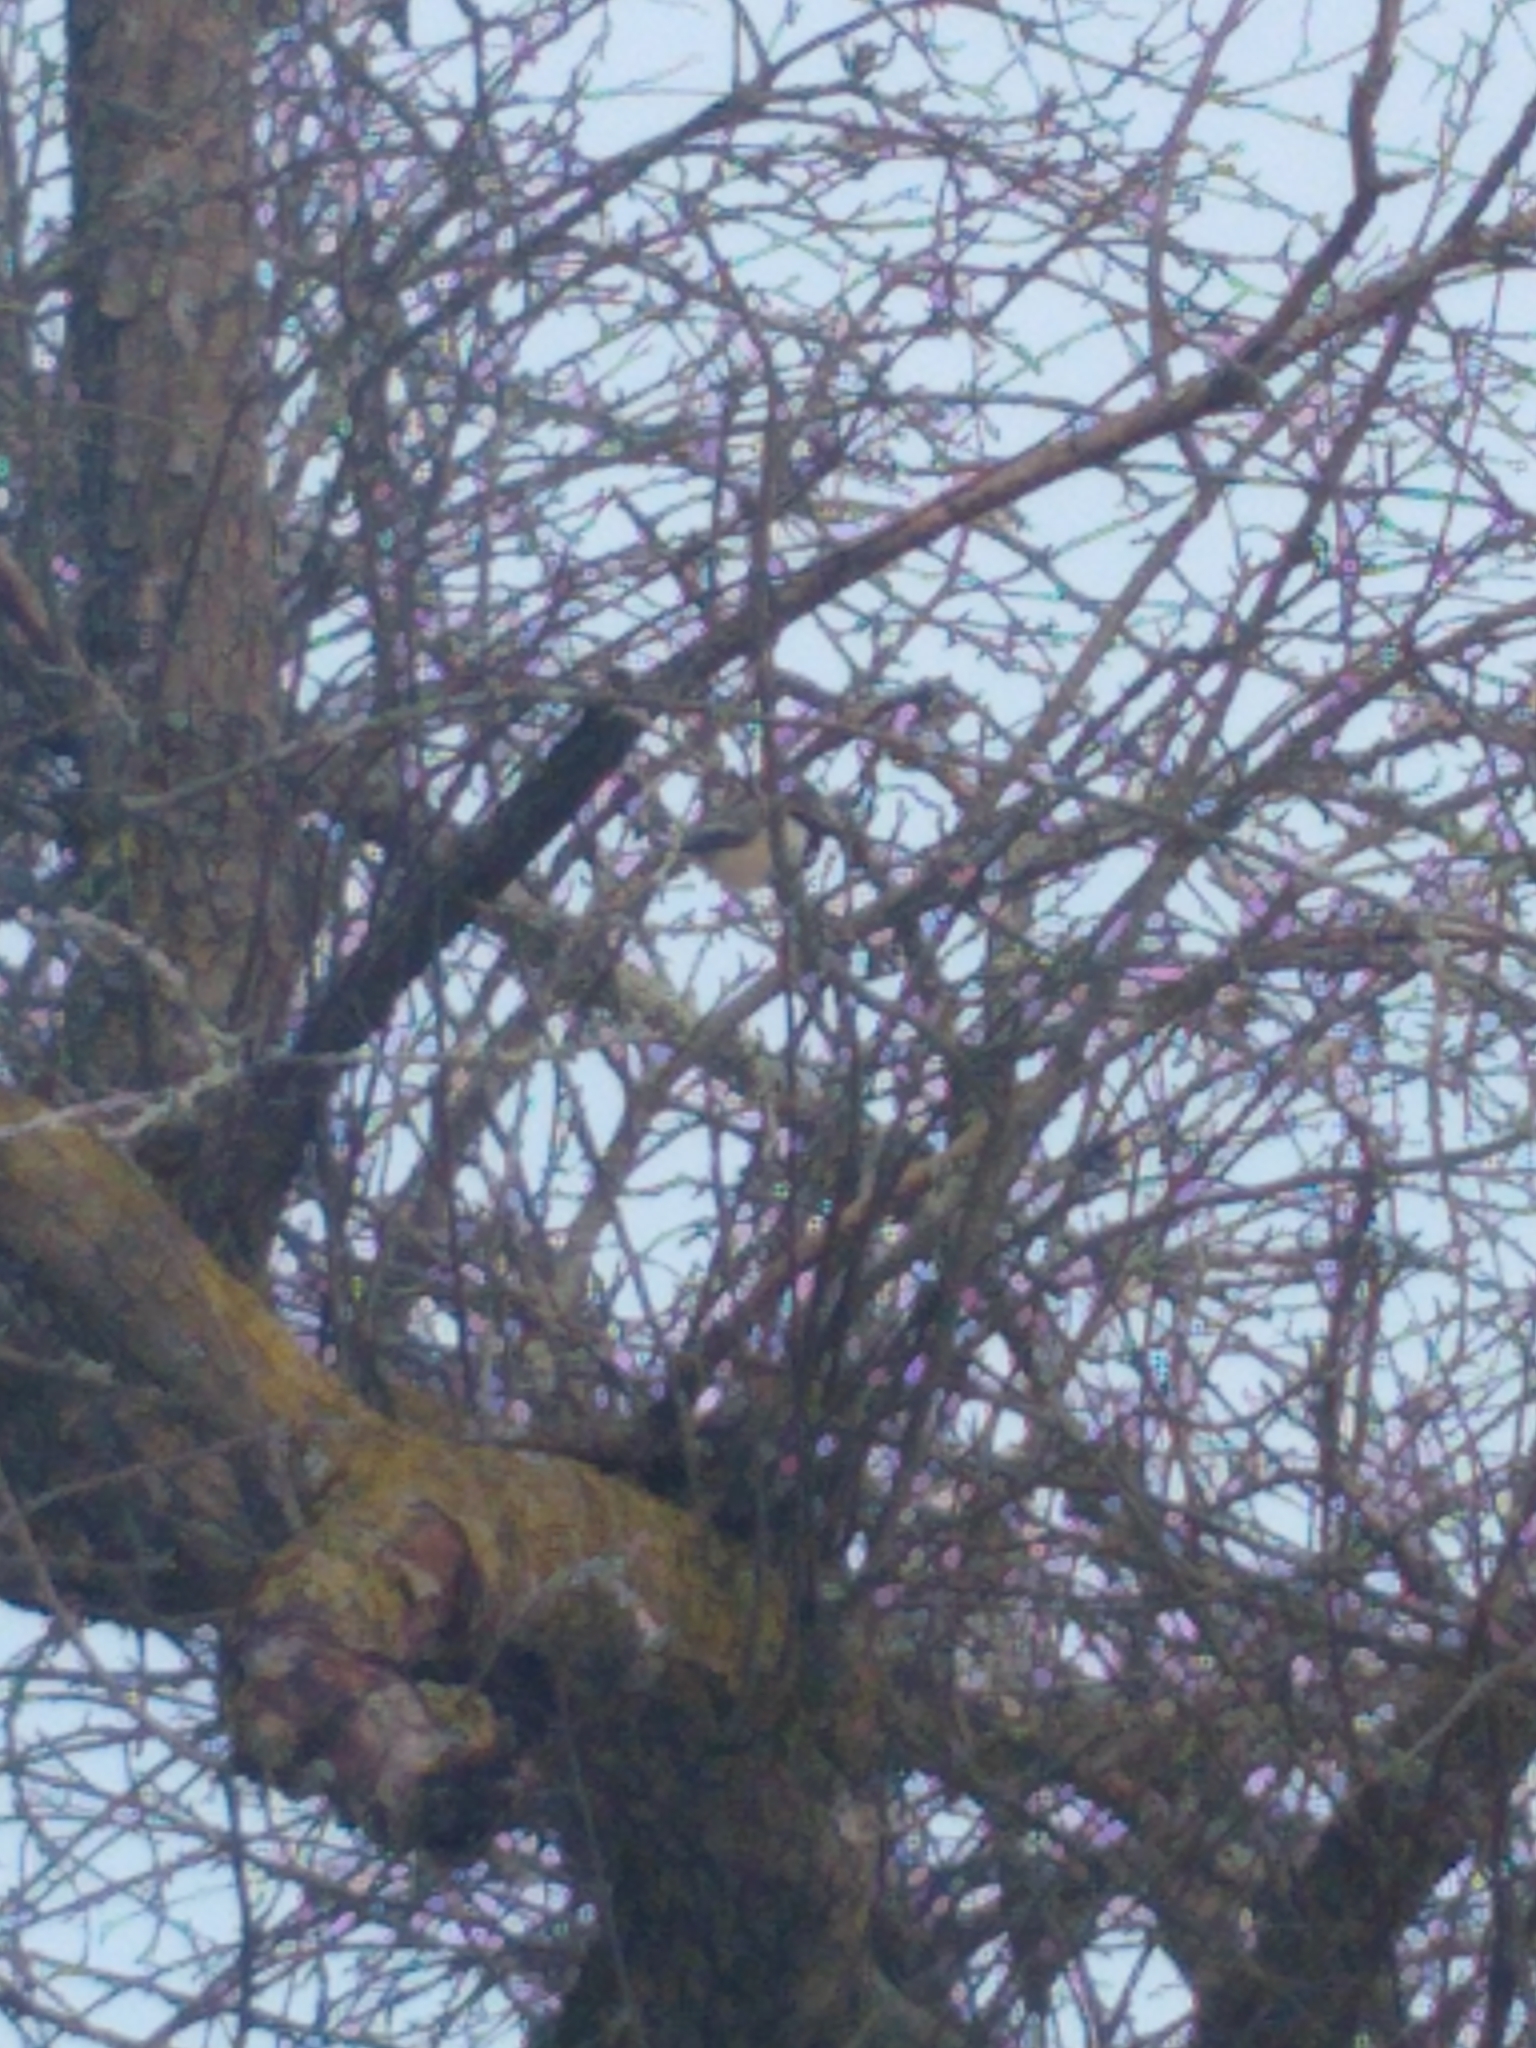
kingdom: Animalia
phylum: Chordata
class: Aves
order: Passeriformes
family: Paridae
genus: Poecile
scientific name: Poecile atricapillus
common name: Black-capped chickadee
